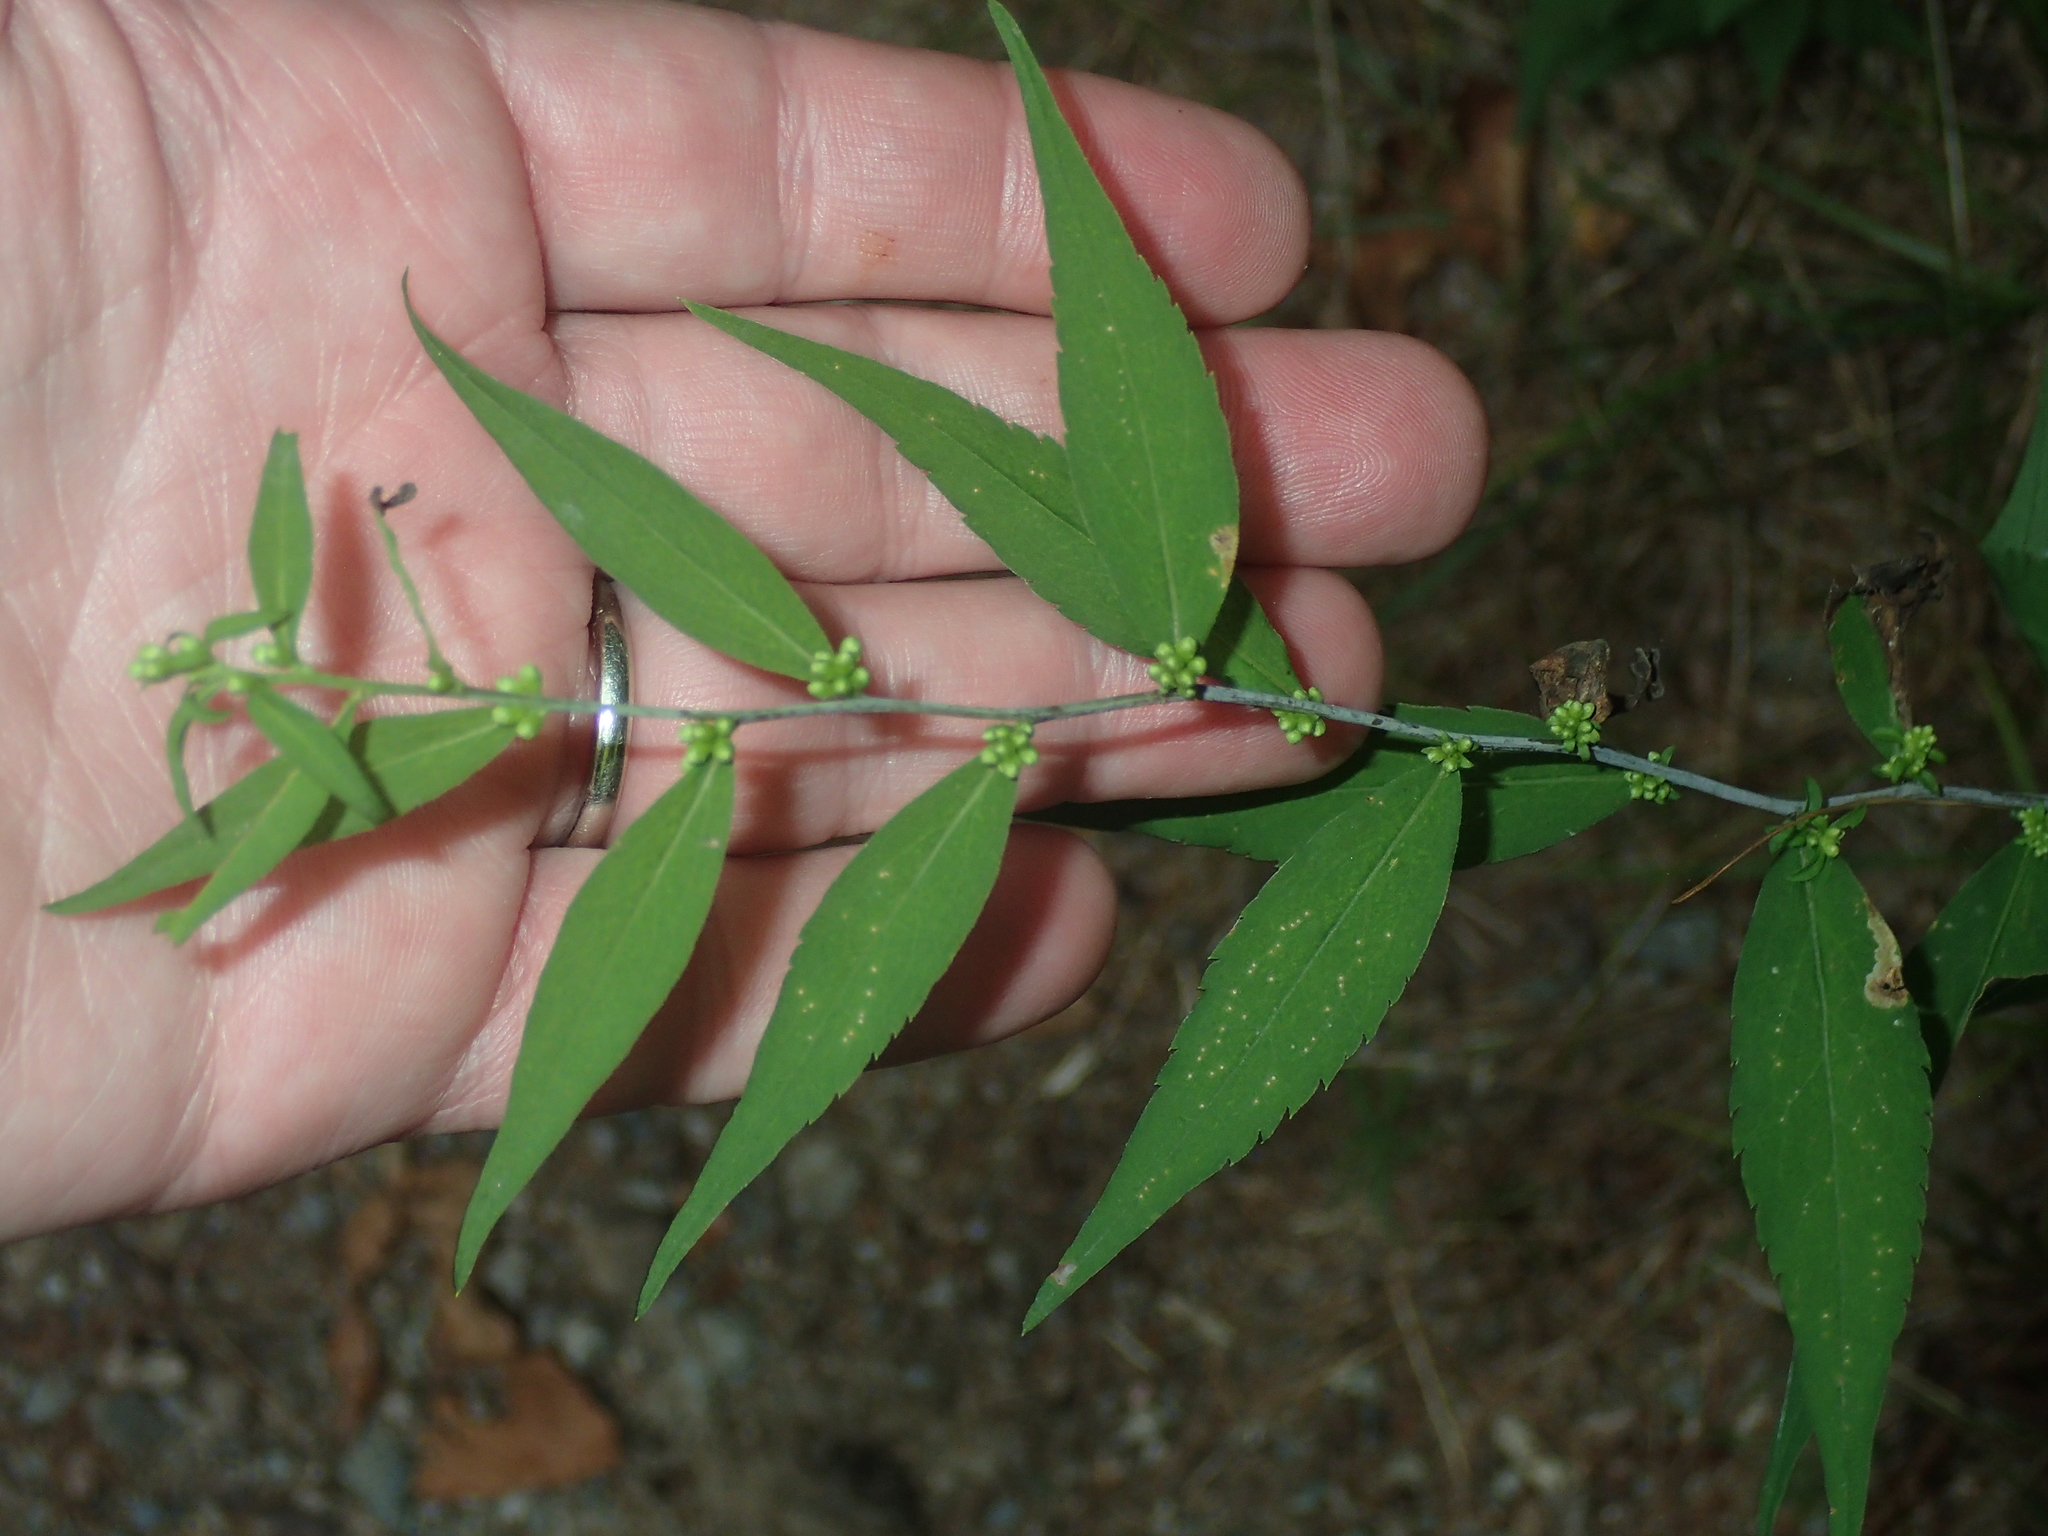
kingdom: Plantae
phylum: Tracheophyta
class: Magnoliopsida
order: Asterales
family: Asteraceae
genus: Solidago
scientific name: Solidago caesia
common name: Woodland goldenrod
